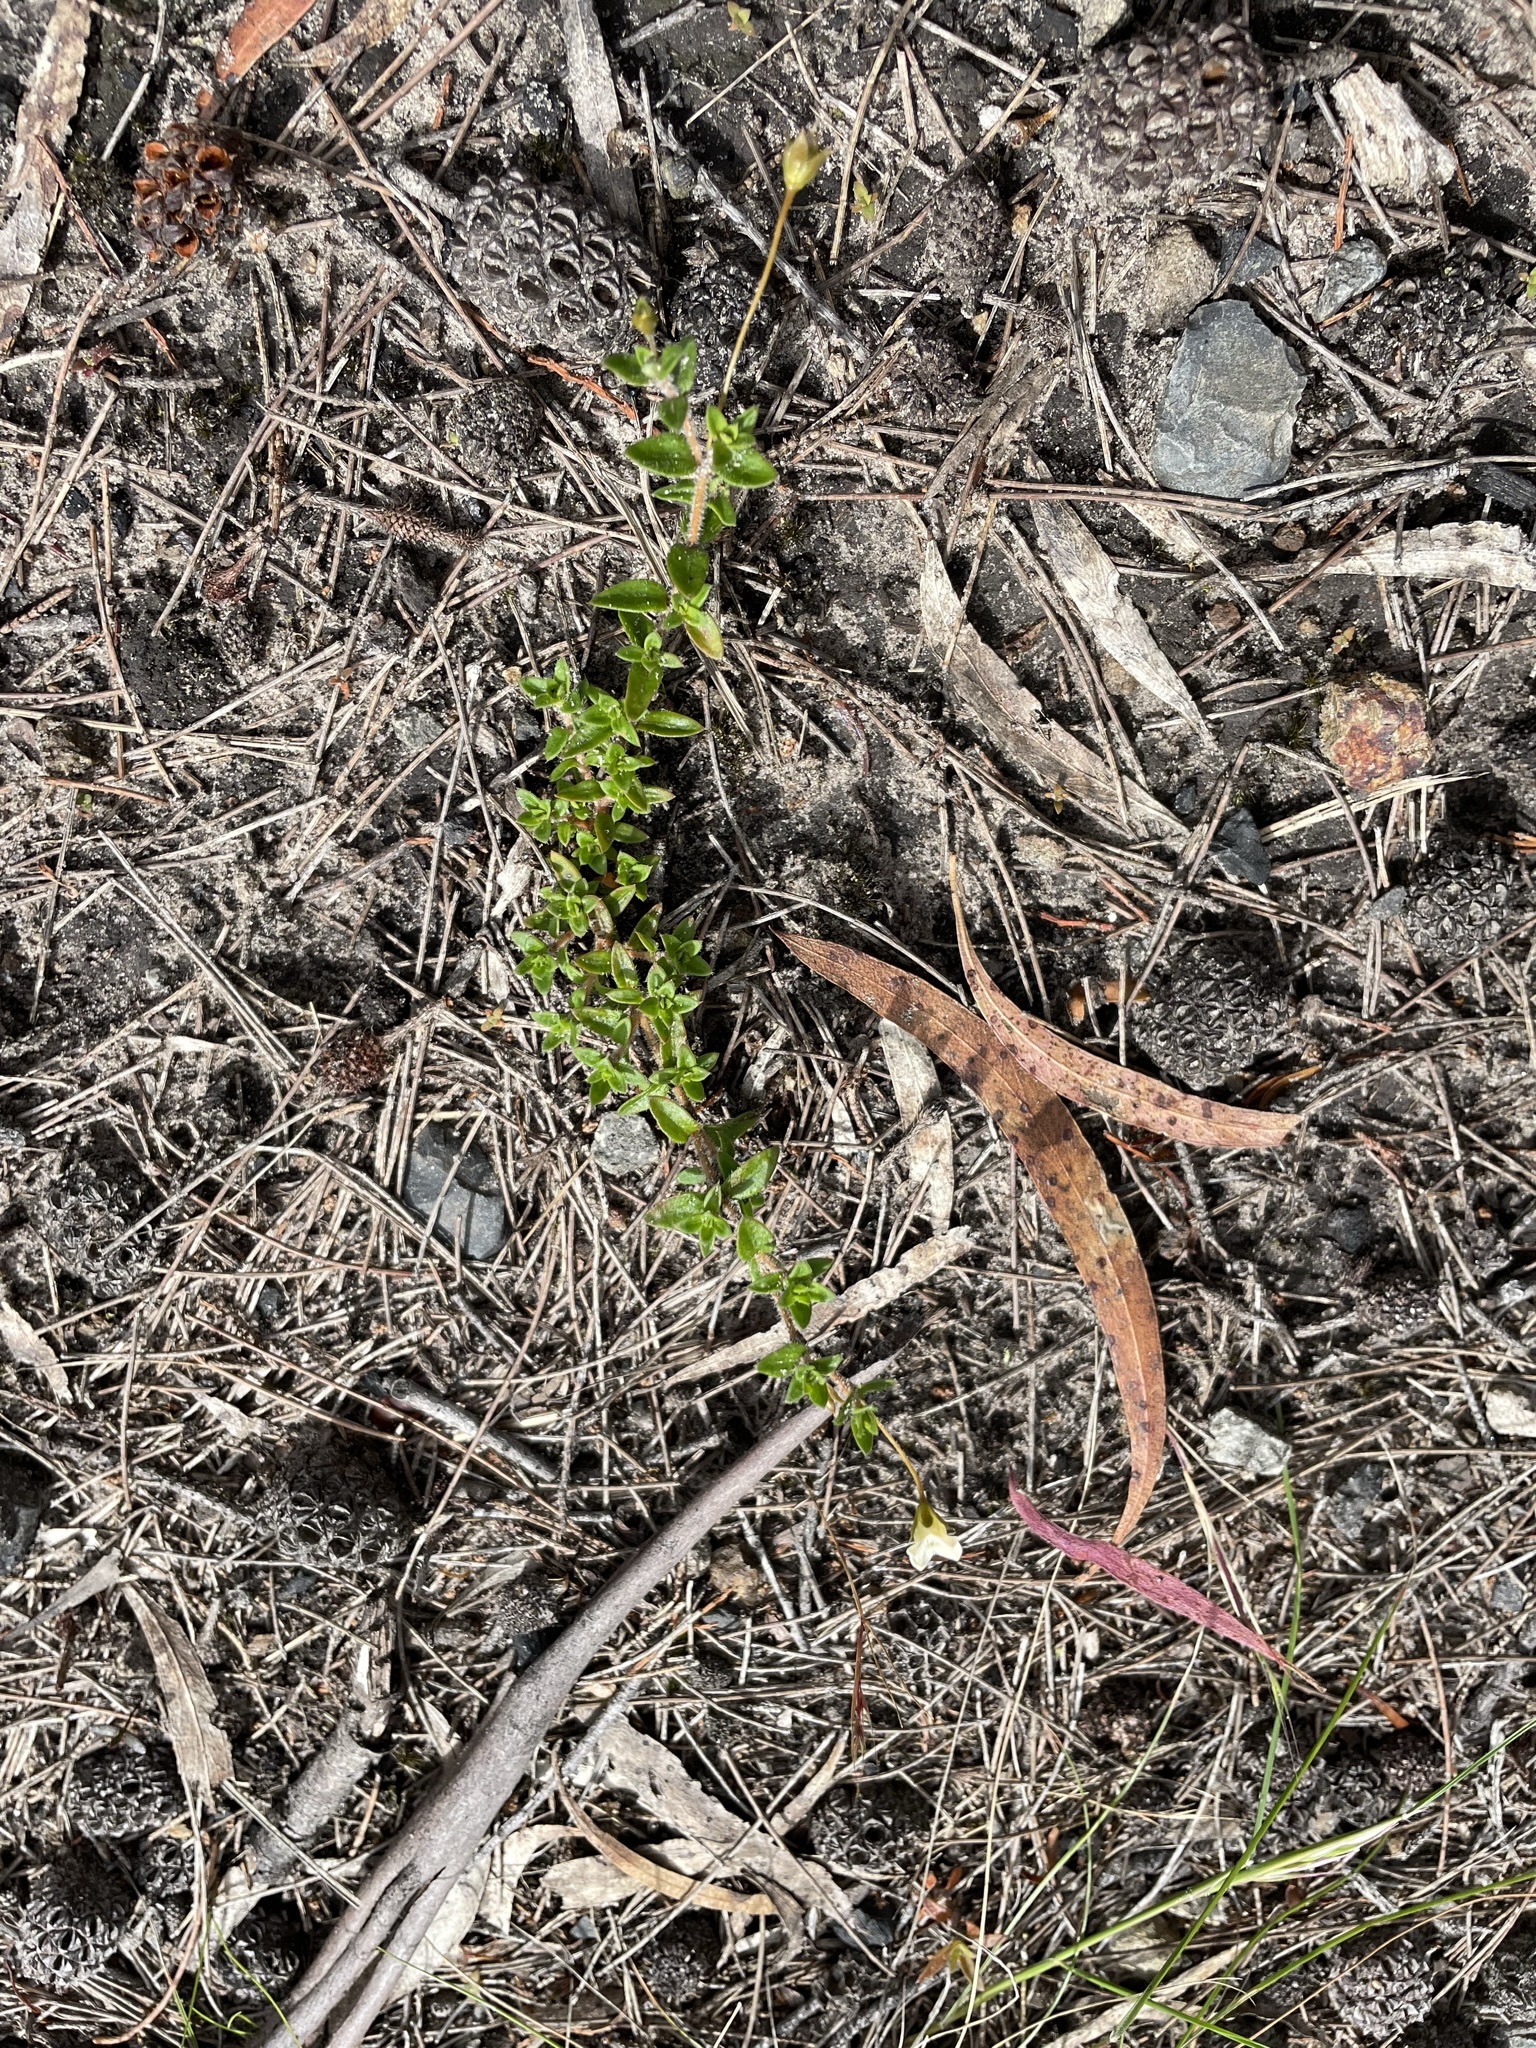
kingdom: Plantae
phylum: Tracheophyta
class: Magnoliopsida
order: Gentianales
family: Loganiaceae
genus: Mitrasacme
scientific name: Mitrasacme pilosa
